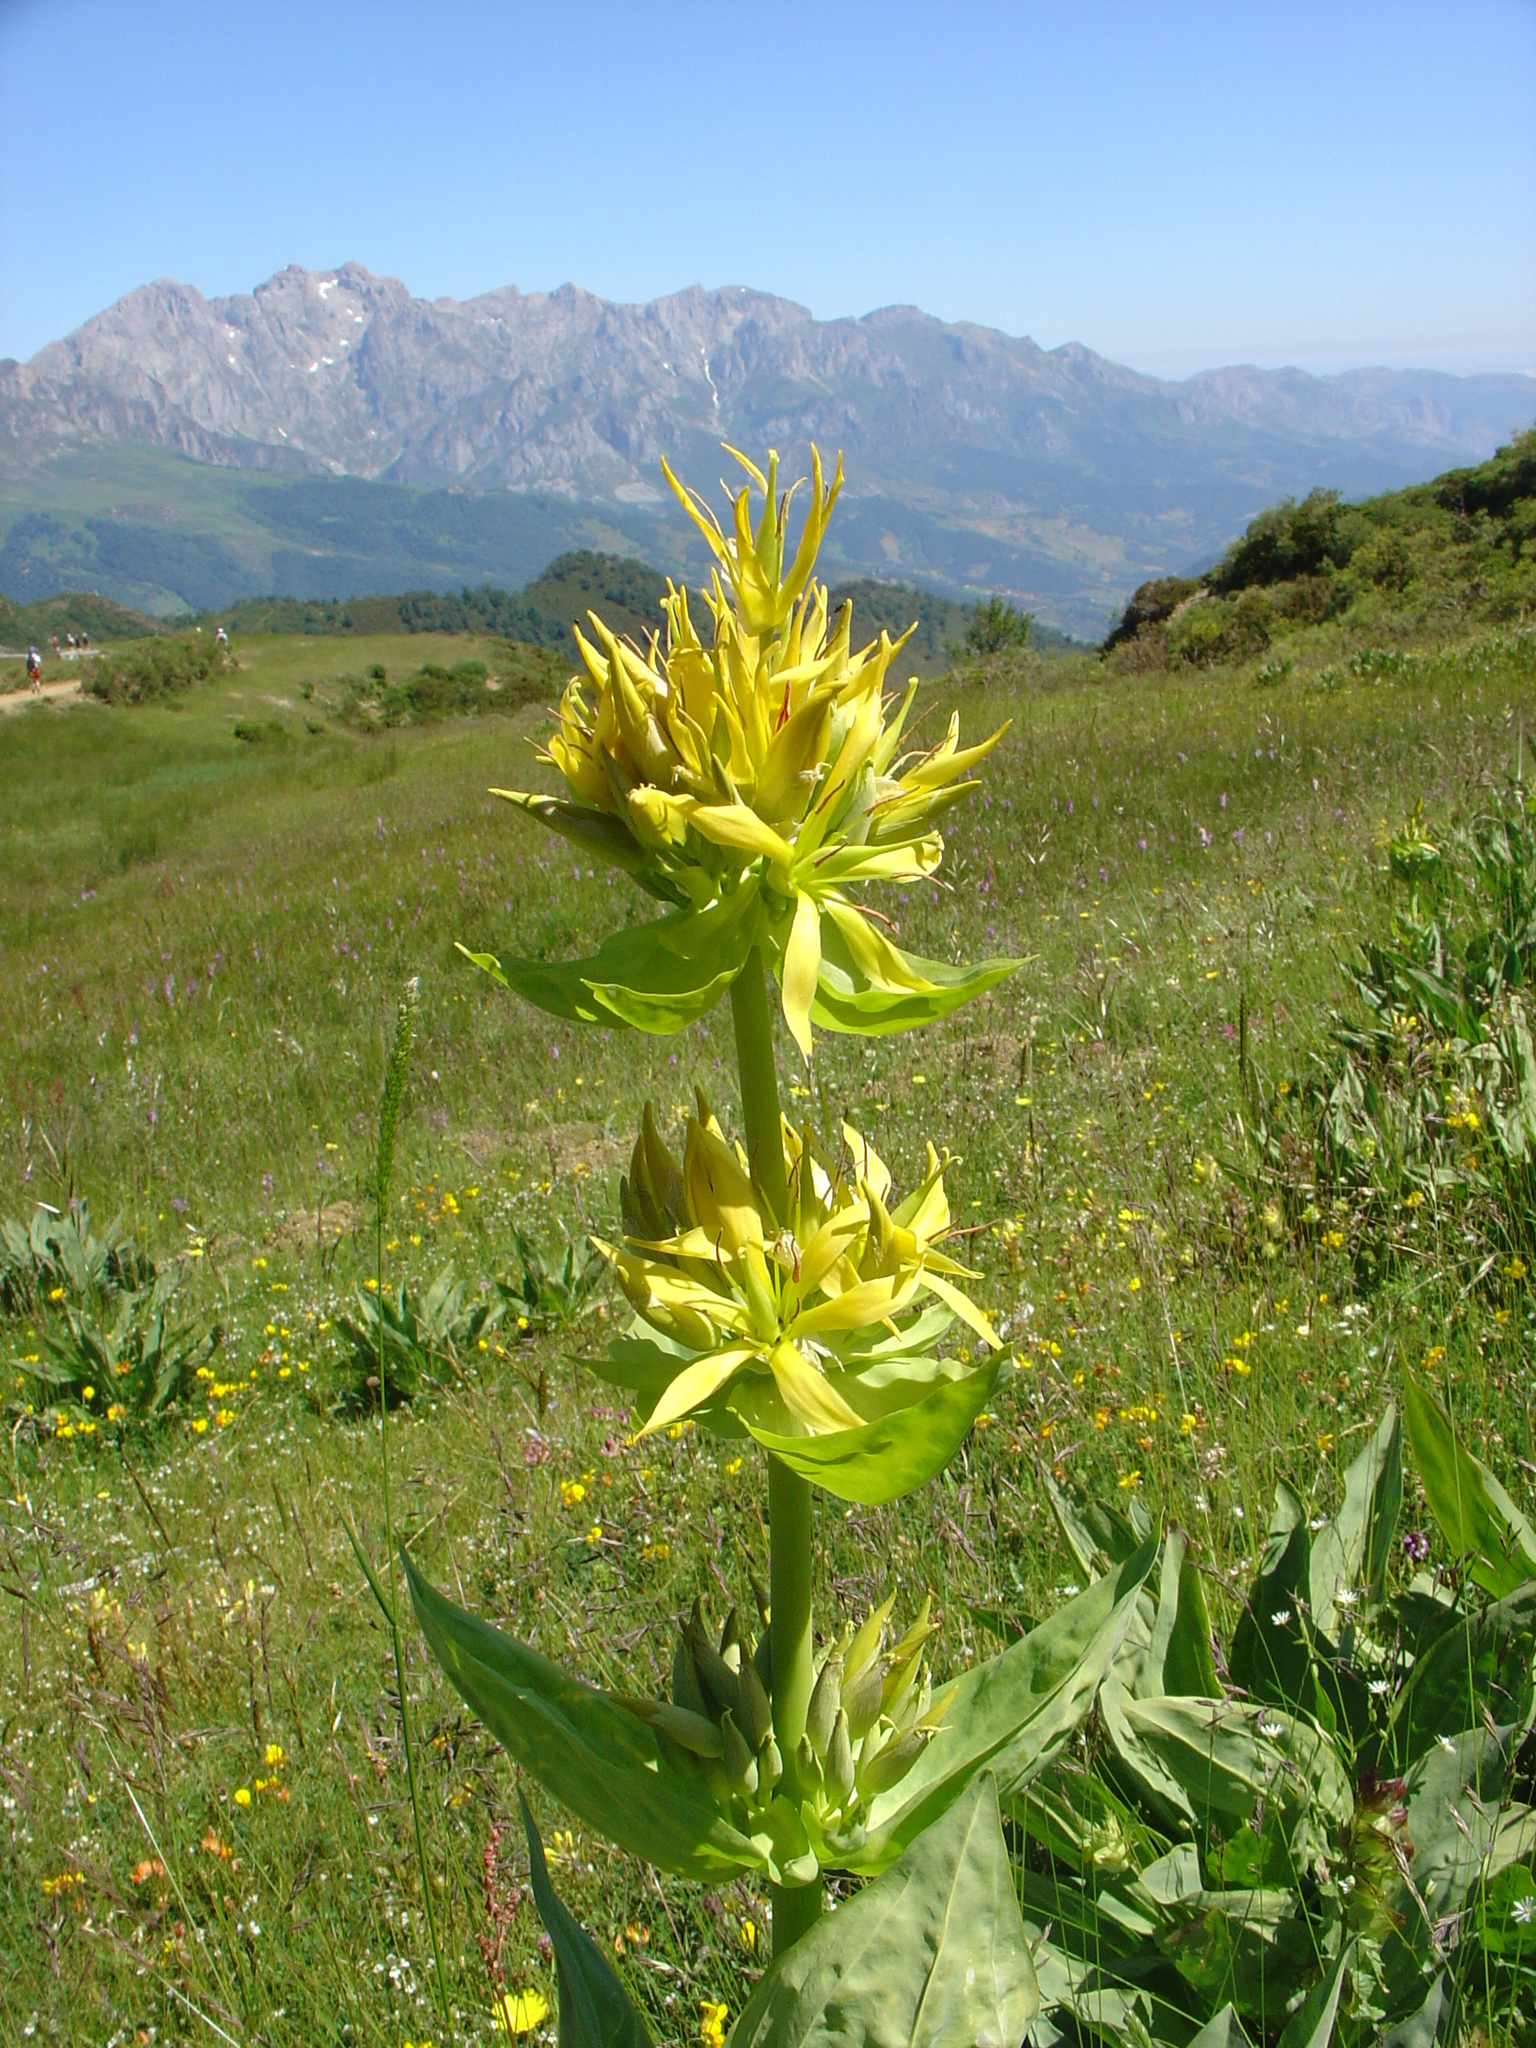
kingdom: Plantae
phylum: Tracheophyta
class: Magnoliopsida
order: Gentianales
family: Gentianaceae
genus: Gentiana
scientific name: Gentiana lutea
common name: Great yellow gentian
